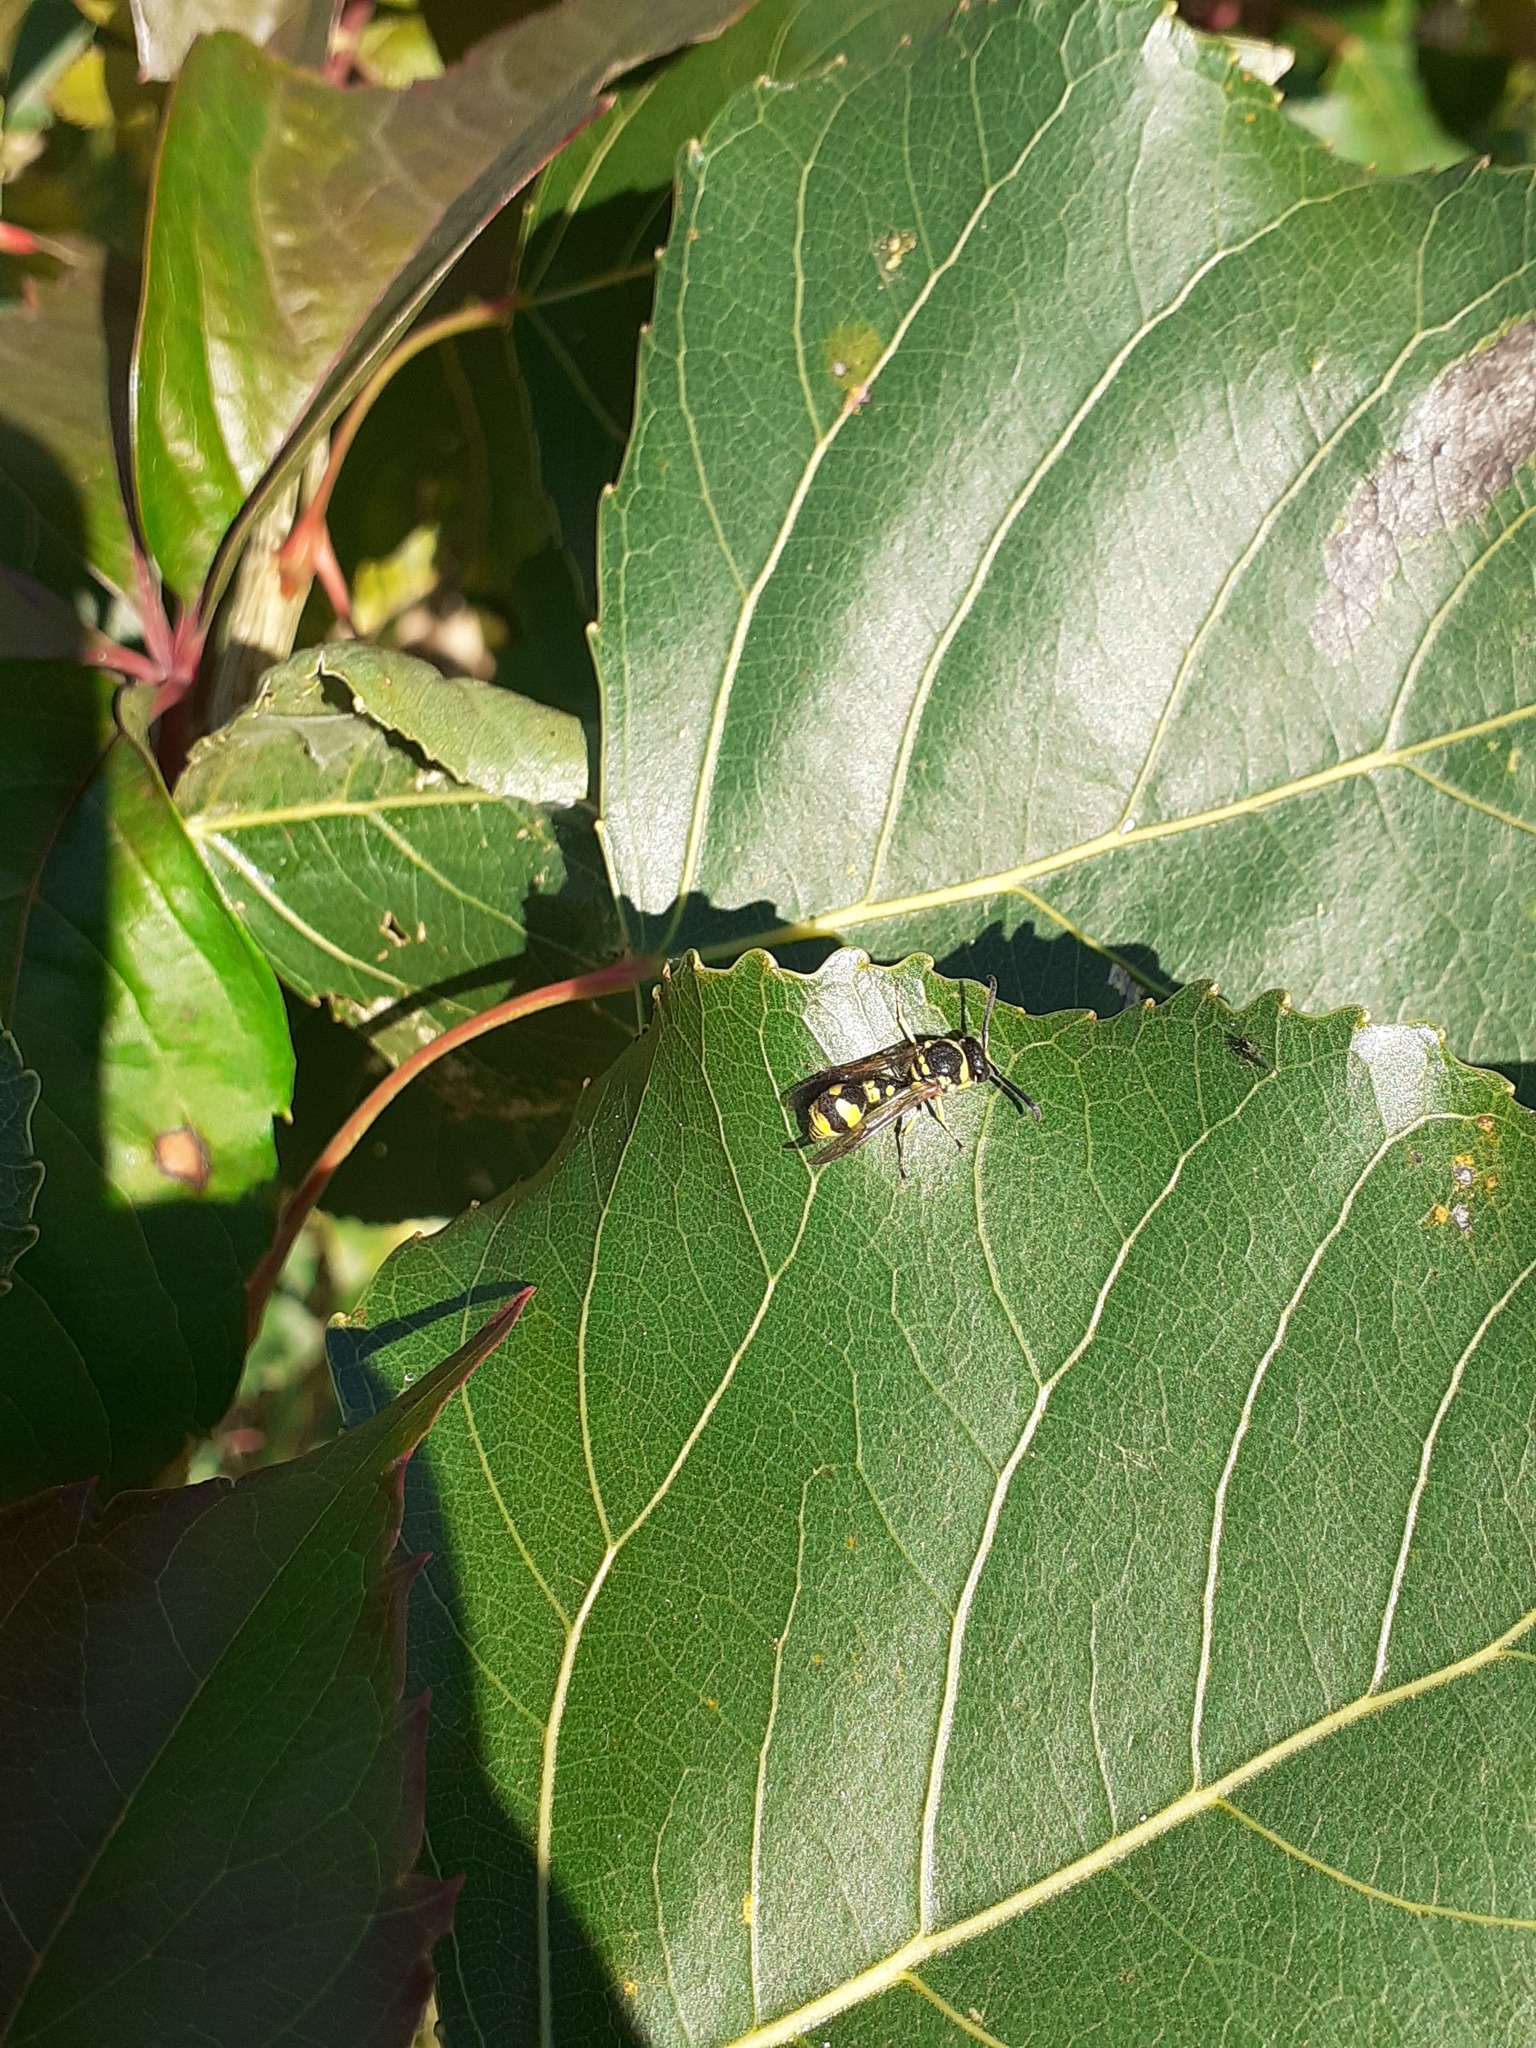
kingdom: Animalia
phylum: Arthropoda
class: Insecta
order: Hymenoptera
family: Vespidae
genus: Eumenes
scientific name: Eumenes
